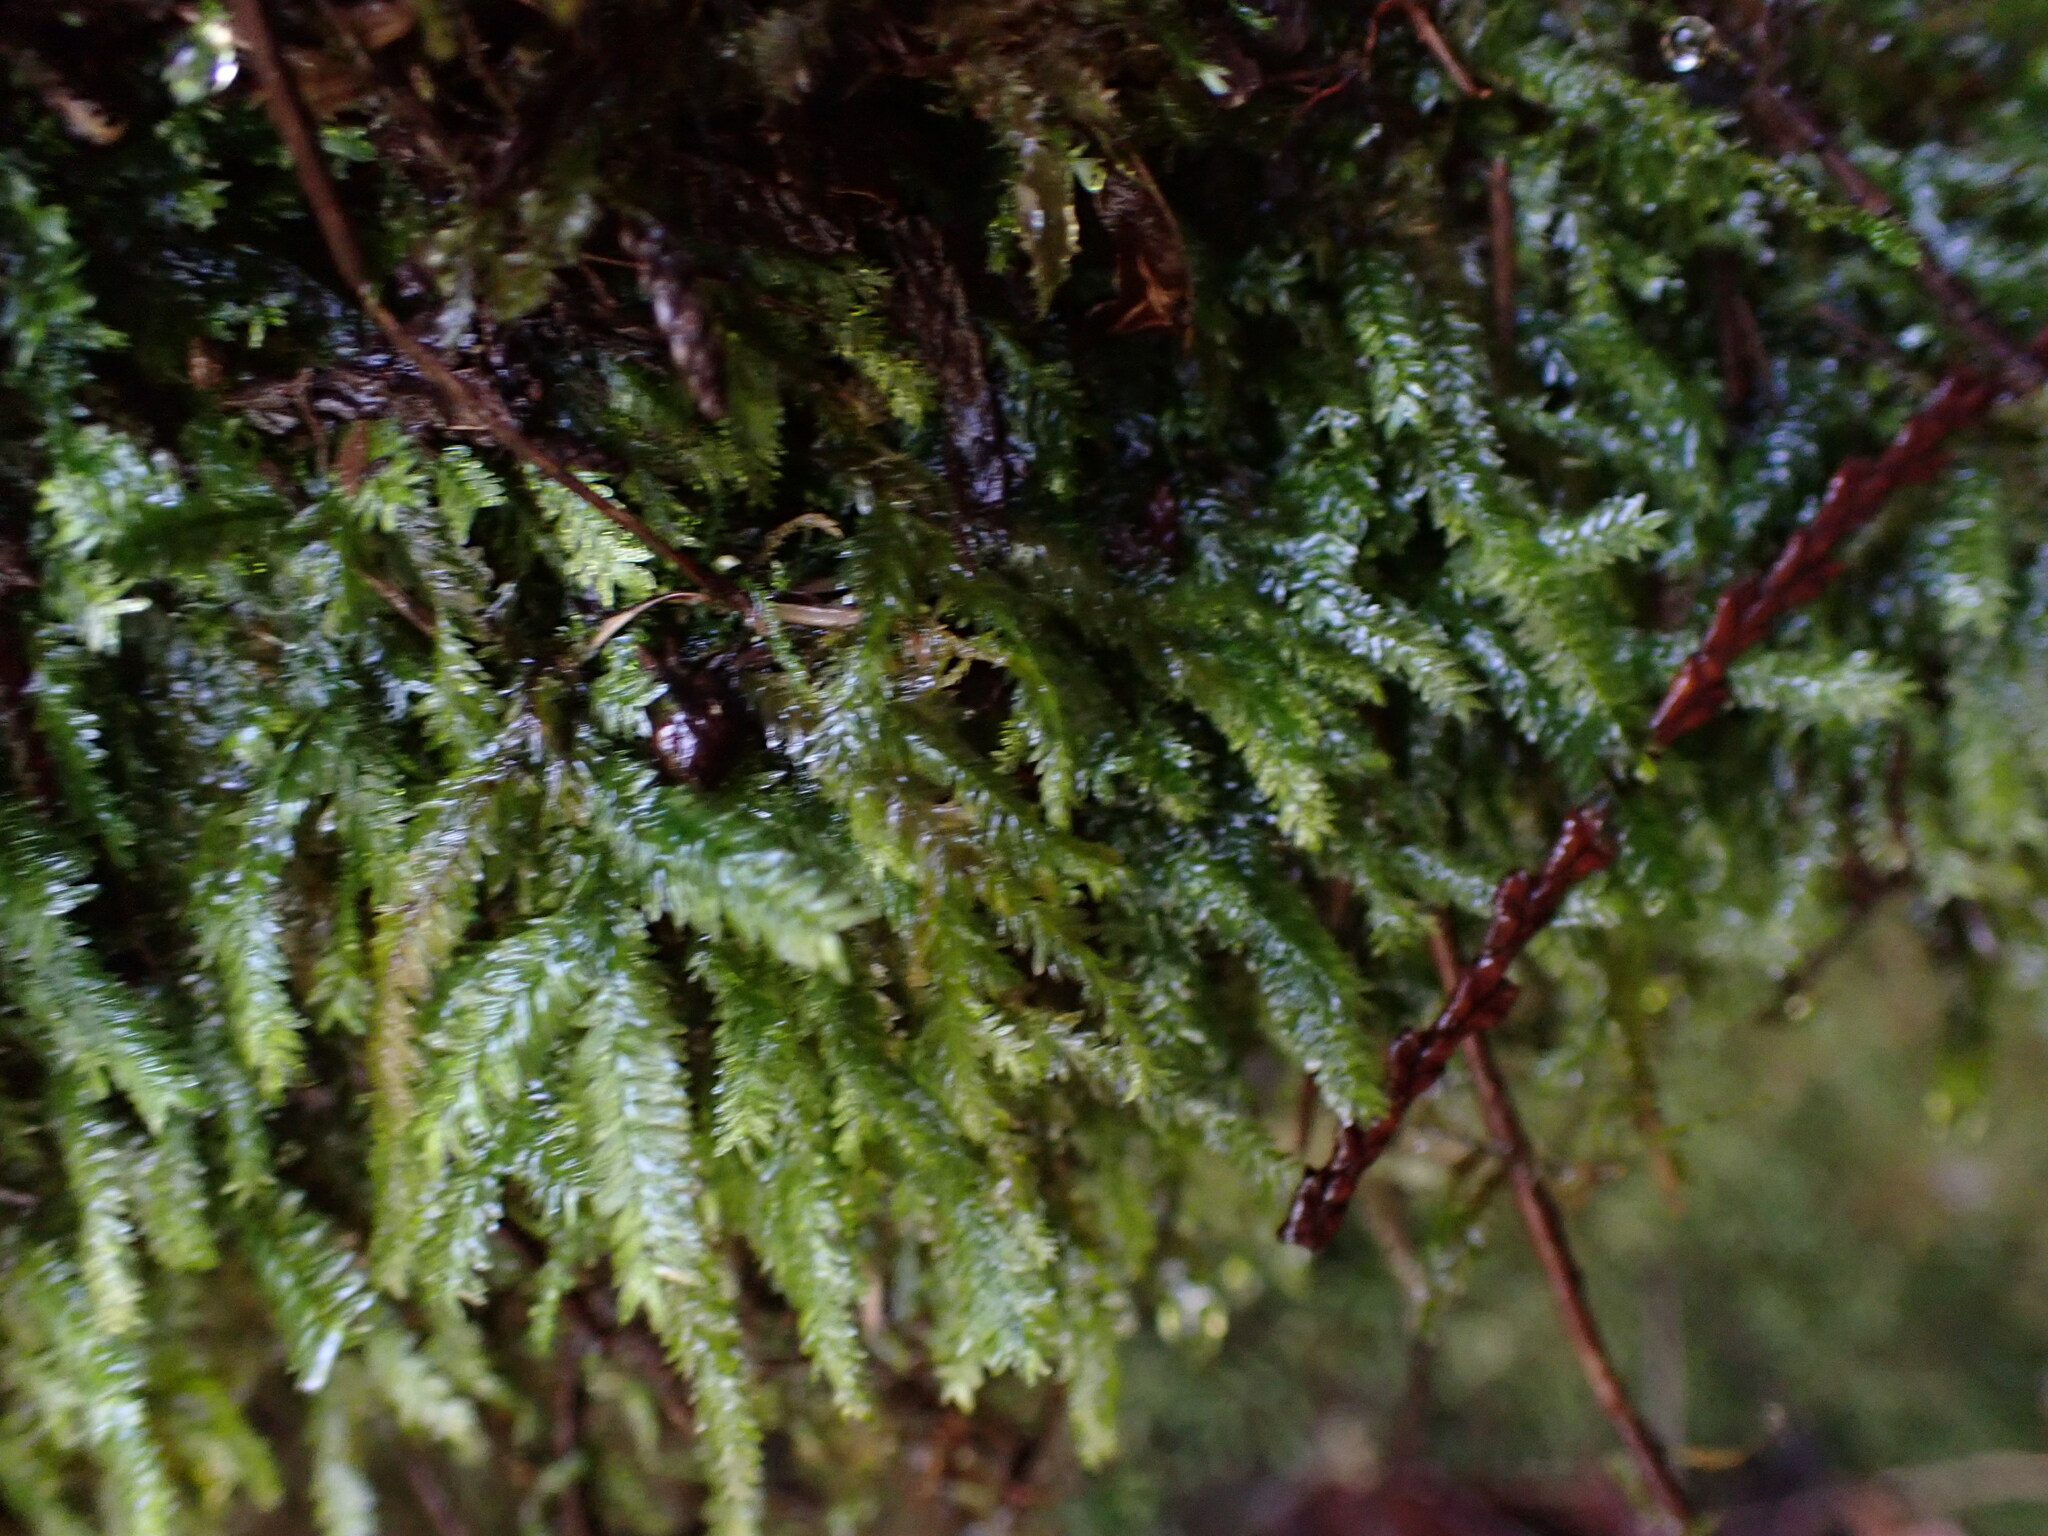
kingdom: Plantae
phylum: Bryophyta
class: Bryopsida
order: Hypnales
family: Neckeraceae
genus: Dannorrisia
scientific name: Dannorrisia bigelovii
